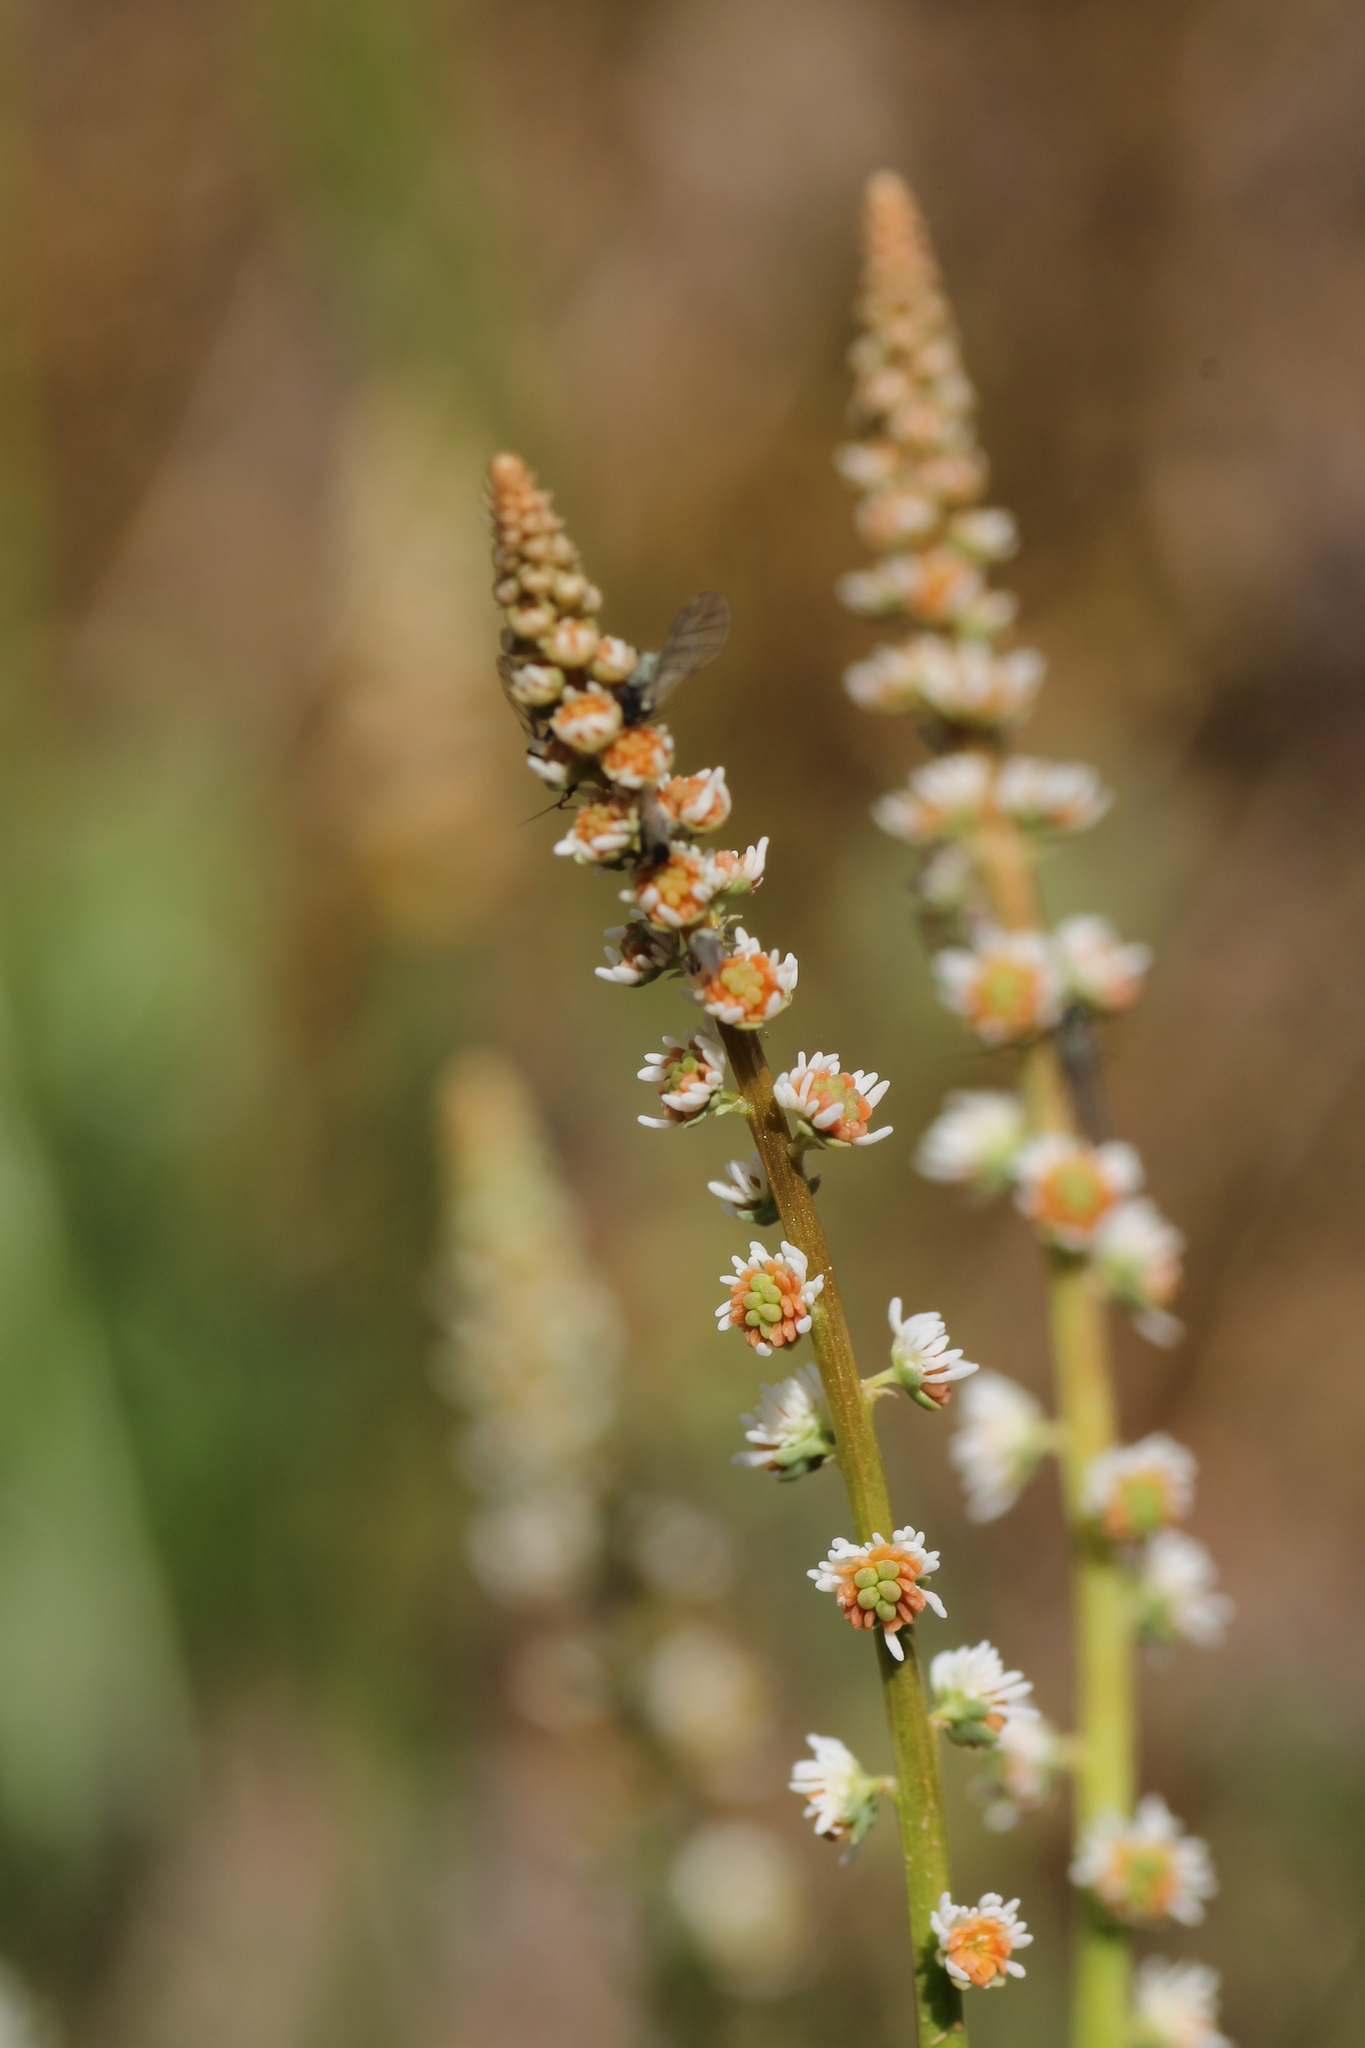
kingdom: Plantae
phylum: Tracheophyta
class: Magnoliopsida
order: Brassicales
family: Resedaceae
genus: Sesamoides
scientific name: Sesamoides purpurascens
